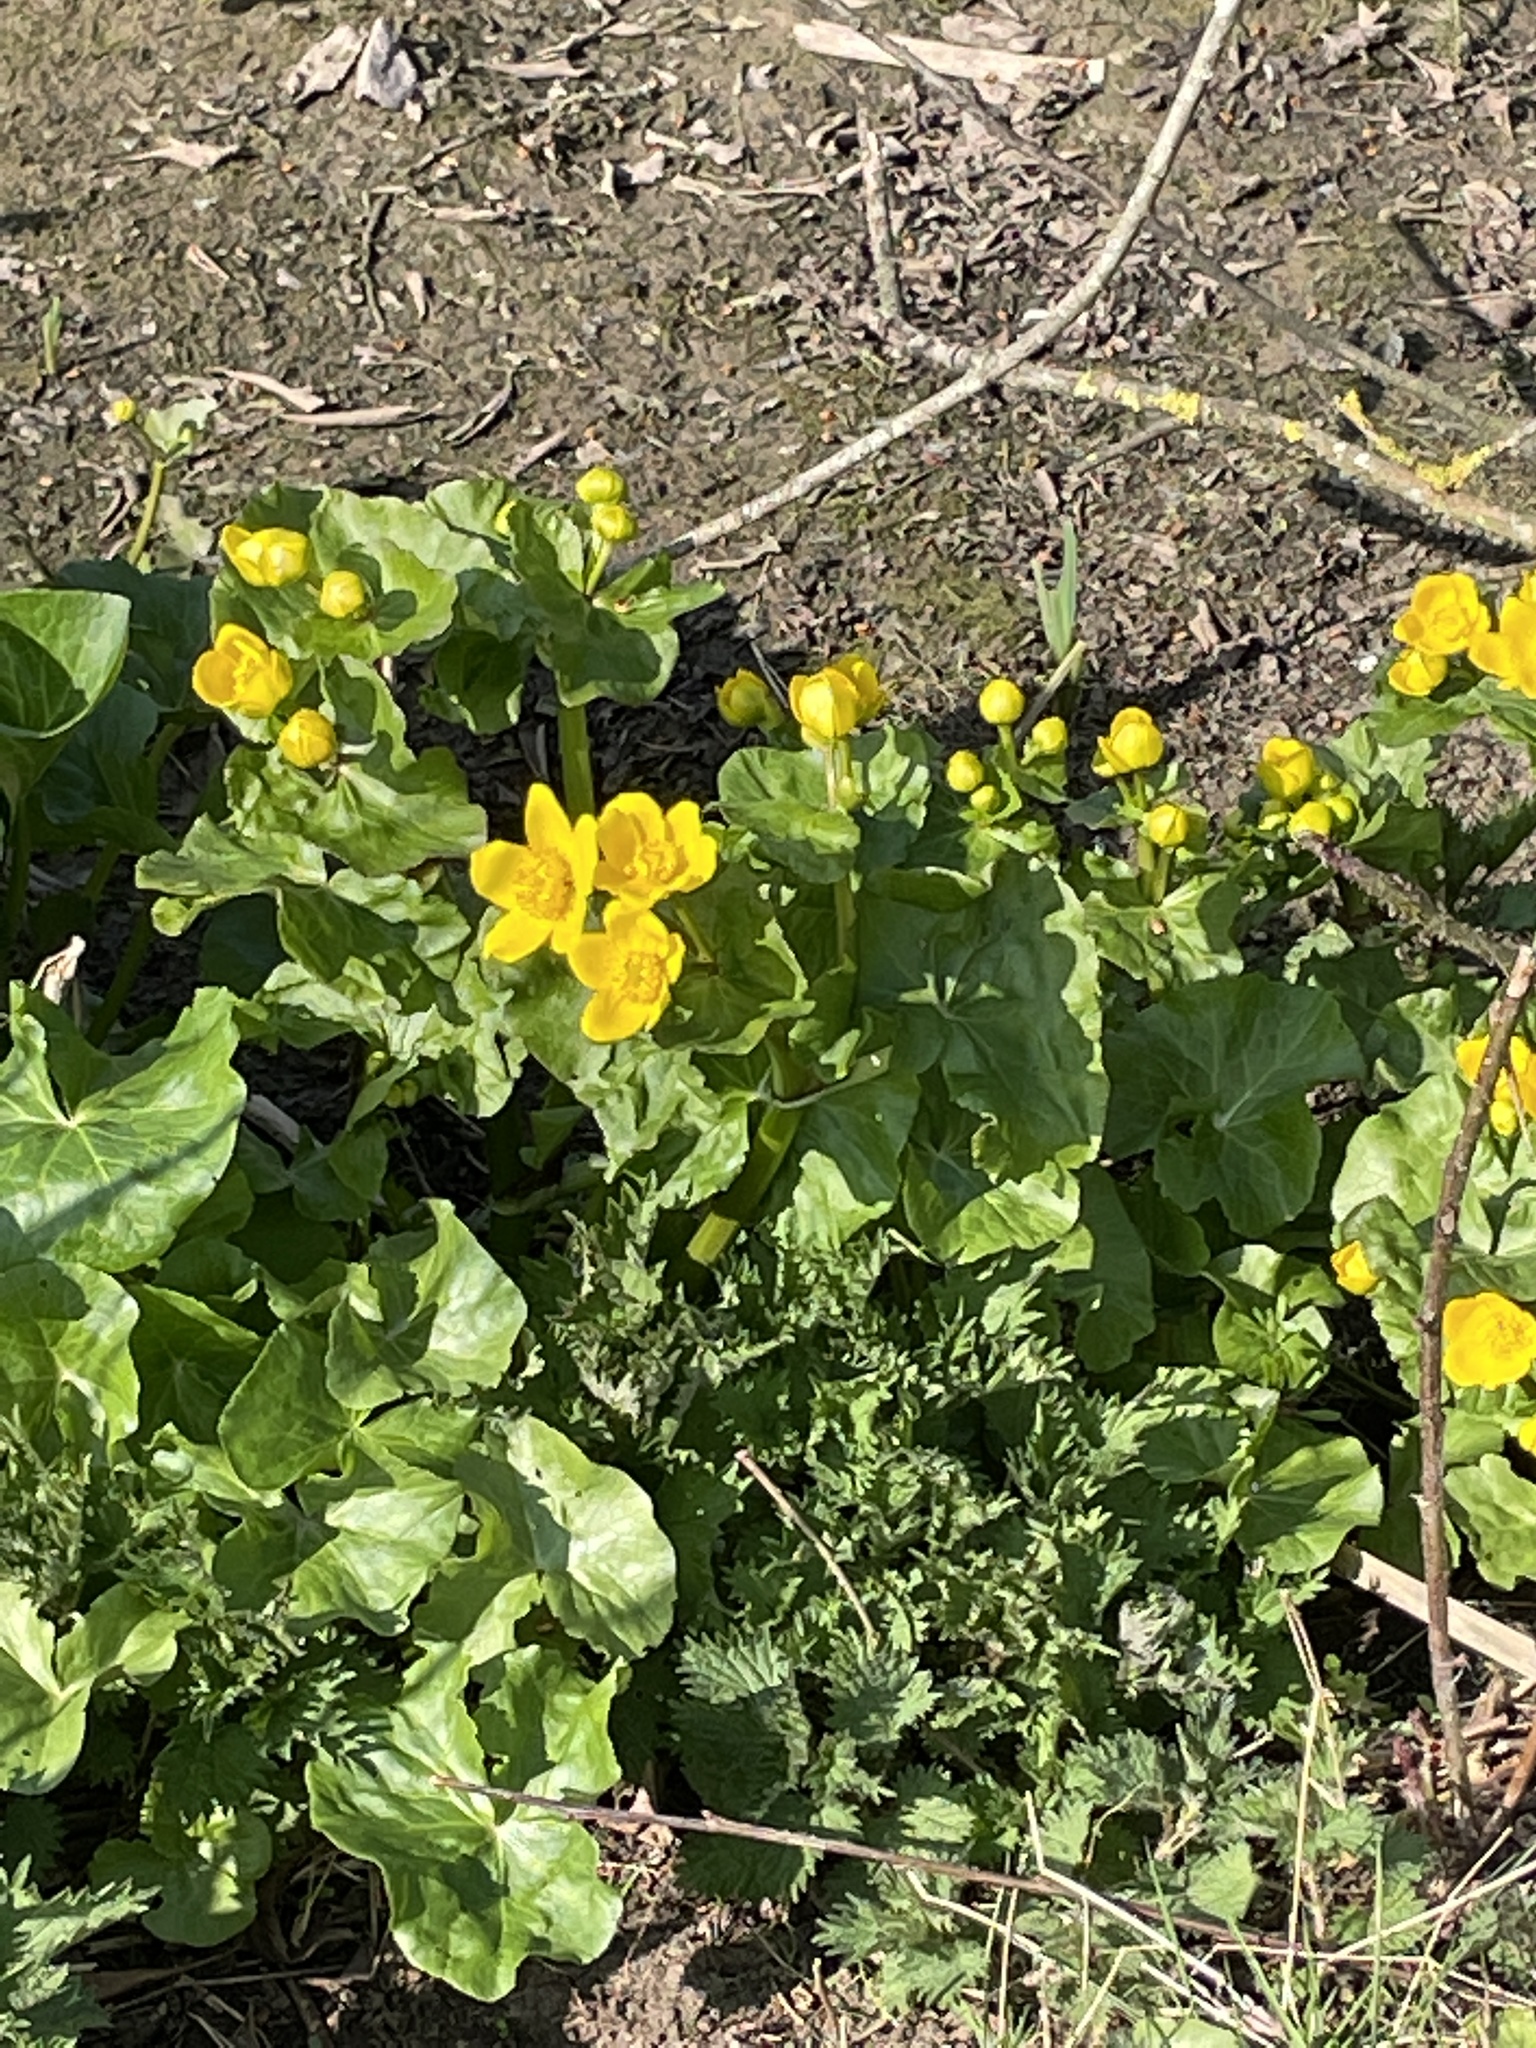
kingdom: Plantae
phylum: Tracheophyta
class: Magnoliopsida
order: Ranunculales
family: Ranunculaceae
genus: Caltha
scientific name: Caltha palustris
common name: Marsh marigold
